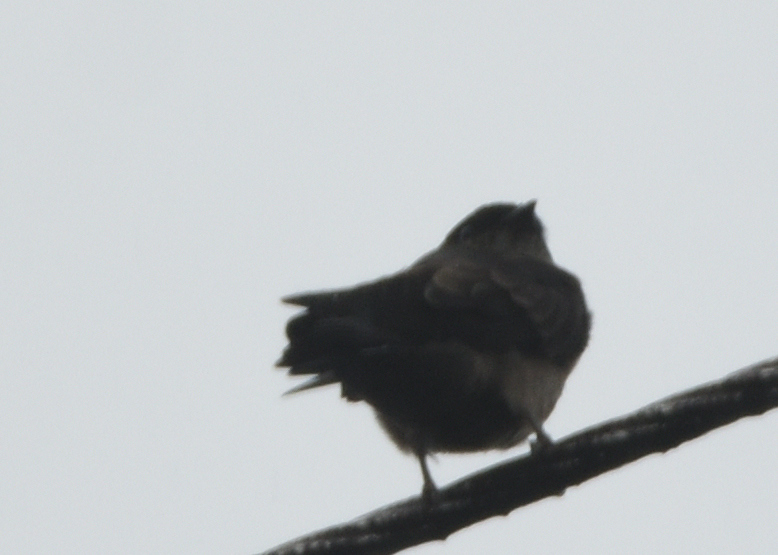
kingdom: Animalia
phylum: Chordata
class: Aves
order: Passeriformes
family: Hirundinidae
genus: Neochelidon
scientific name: Neochelidon tibialis
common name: White-thighed swallow
